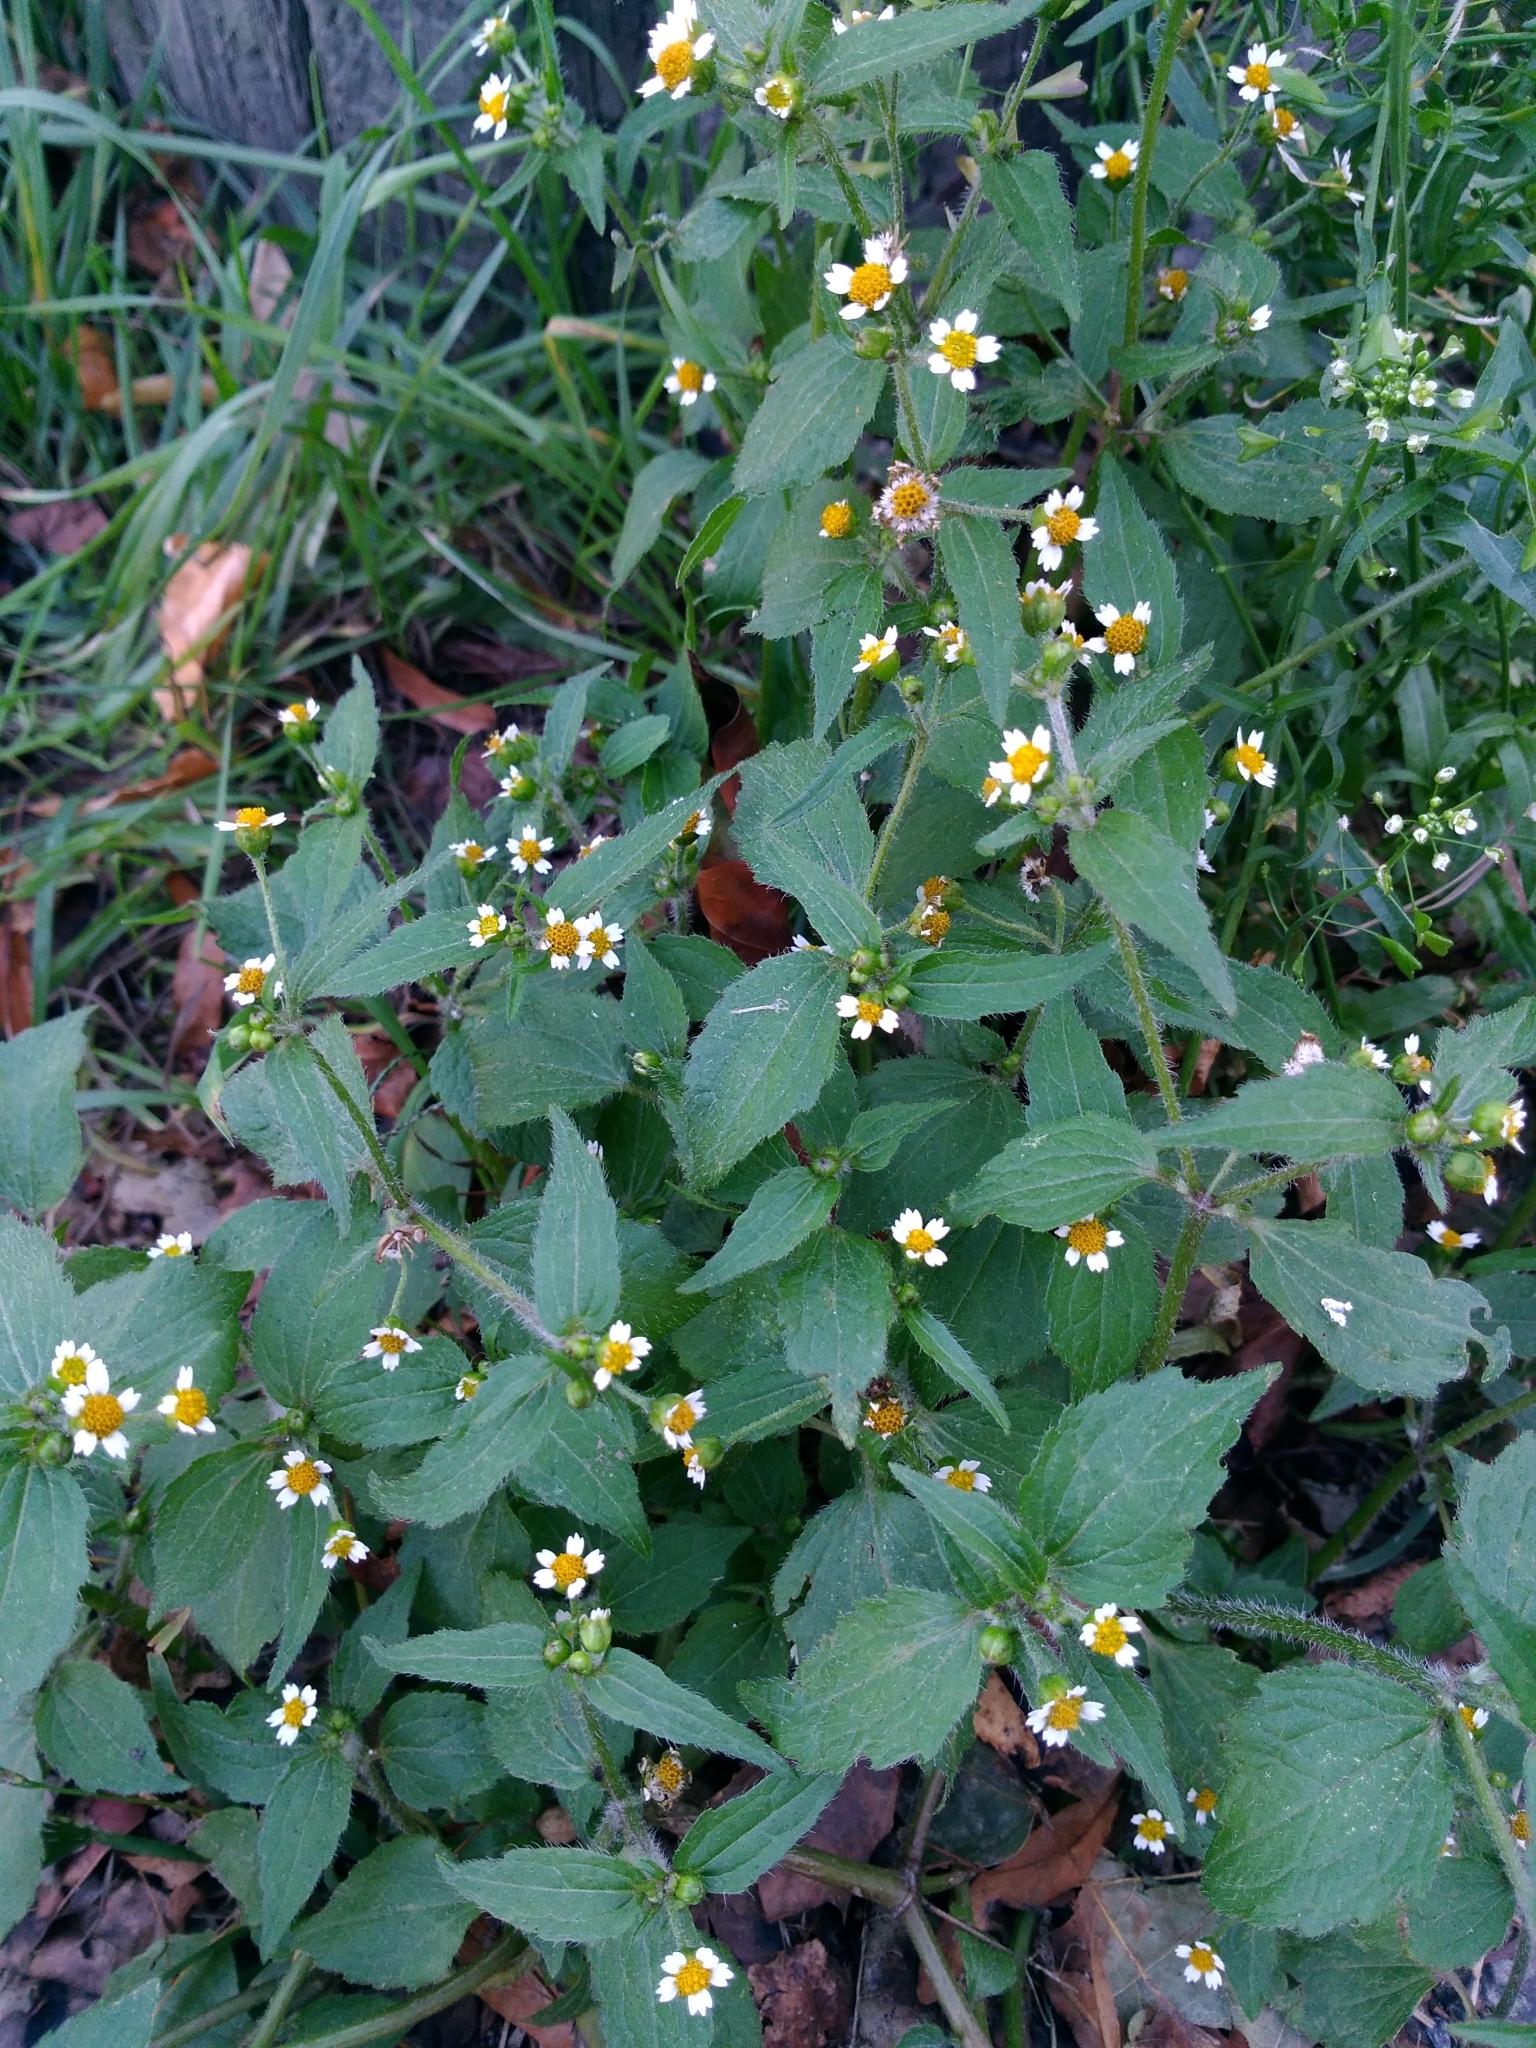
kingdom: Plantae
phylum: Tracheophyta
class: Magnoliopsida
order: Asterales
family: Asteraceae
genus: Galinsoga
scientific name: Galinsoga quadriradiata
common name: Shaggy soldier
